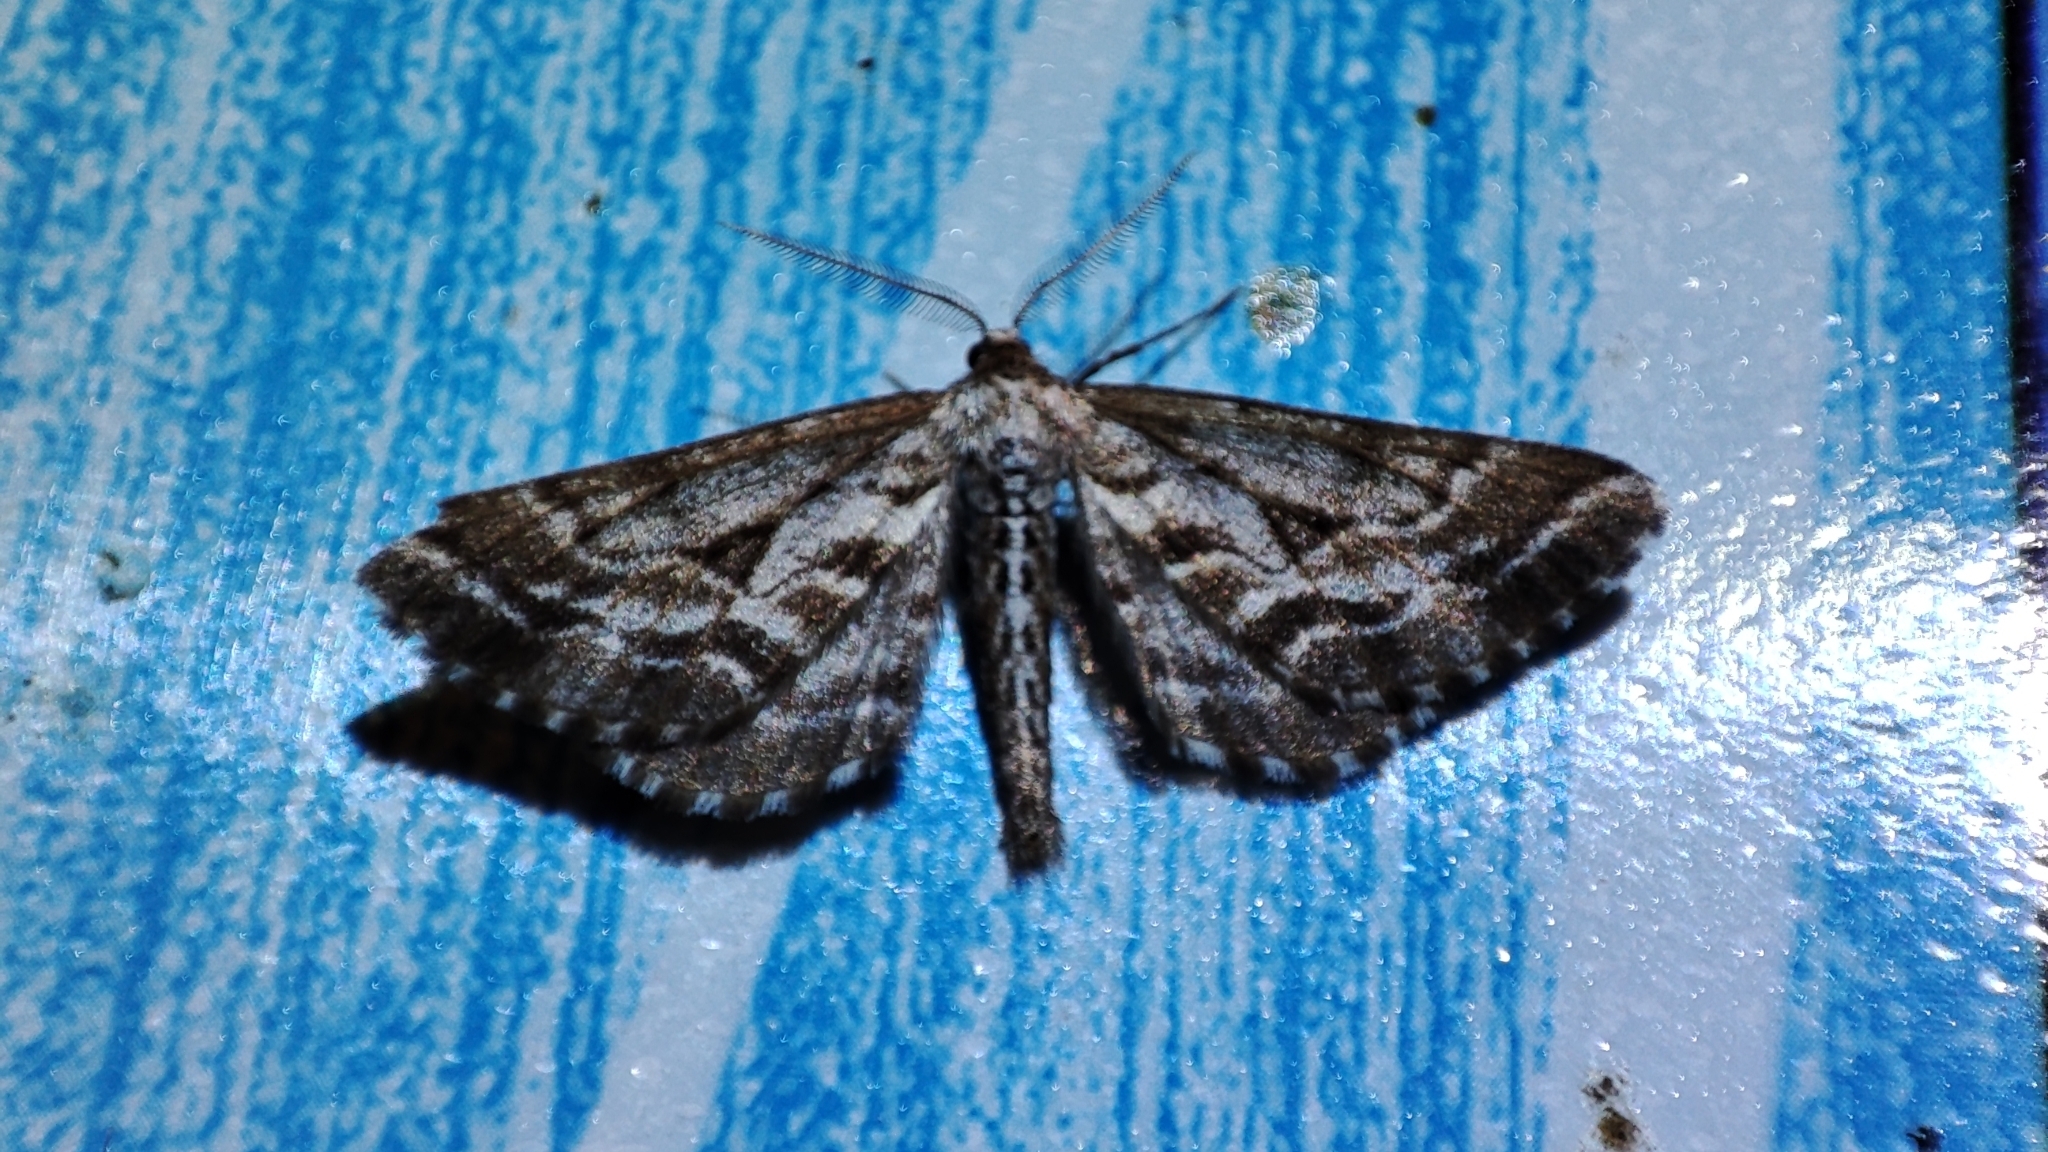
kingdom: Animalia
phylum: Arthropoda
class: Insecta
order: Lepidoptera
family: Geometridae
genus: Spartopteryx
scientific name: Spartopteryx kindermannaria
